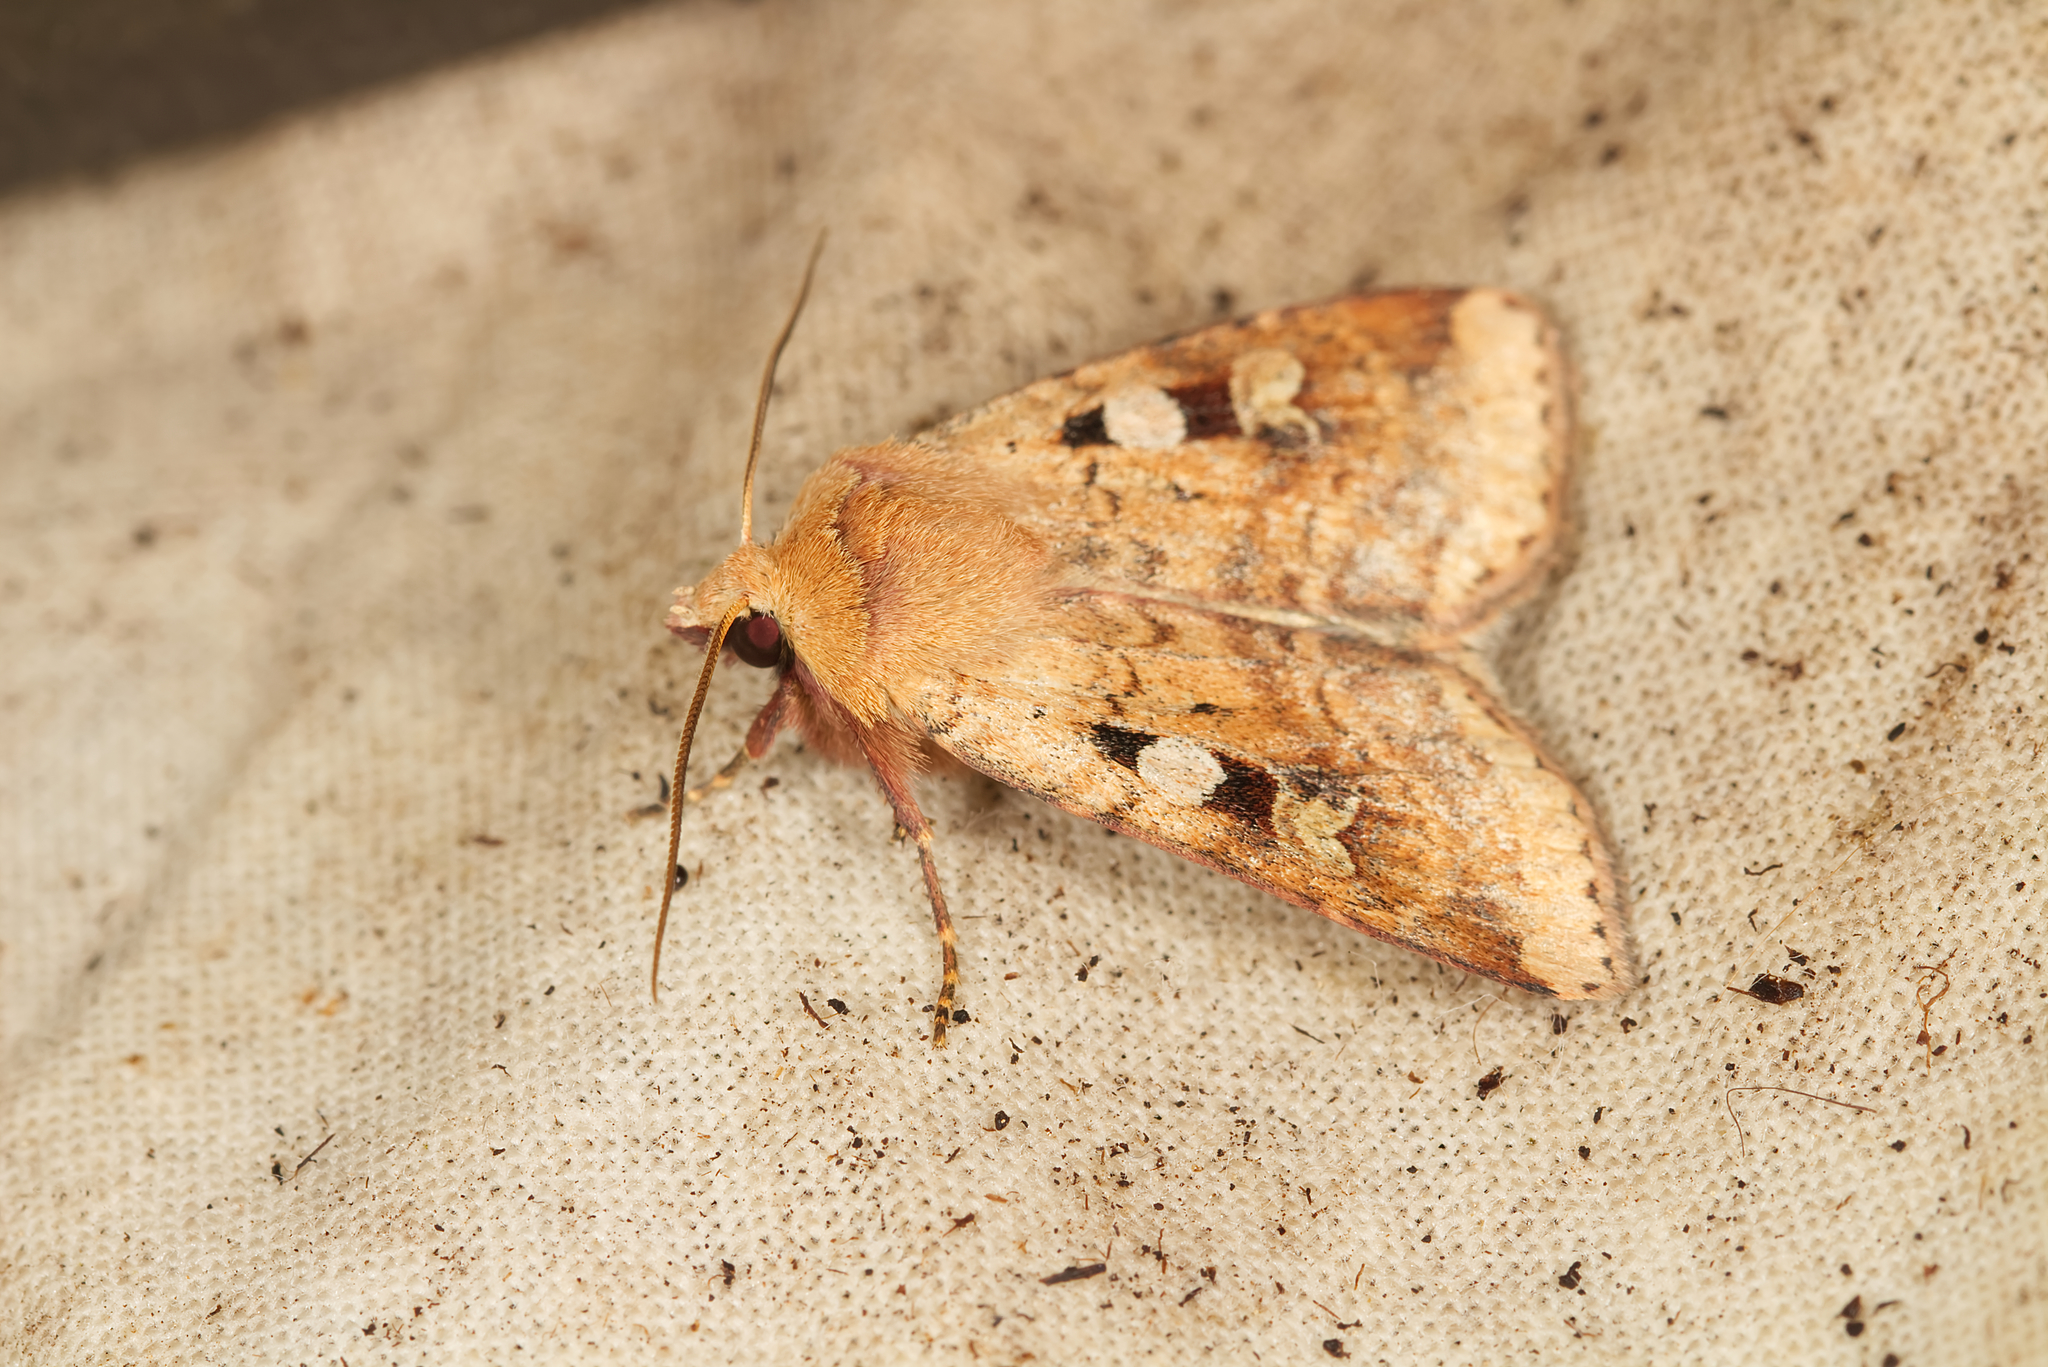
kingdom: Animalia
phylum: Arthropoda
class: Insecta
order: Lepidoptera
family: Noctuidae
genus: Diarsia
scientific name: Diarsia mendica
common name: Ingrailed clay
